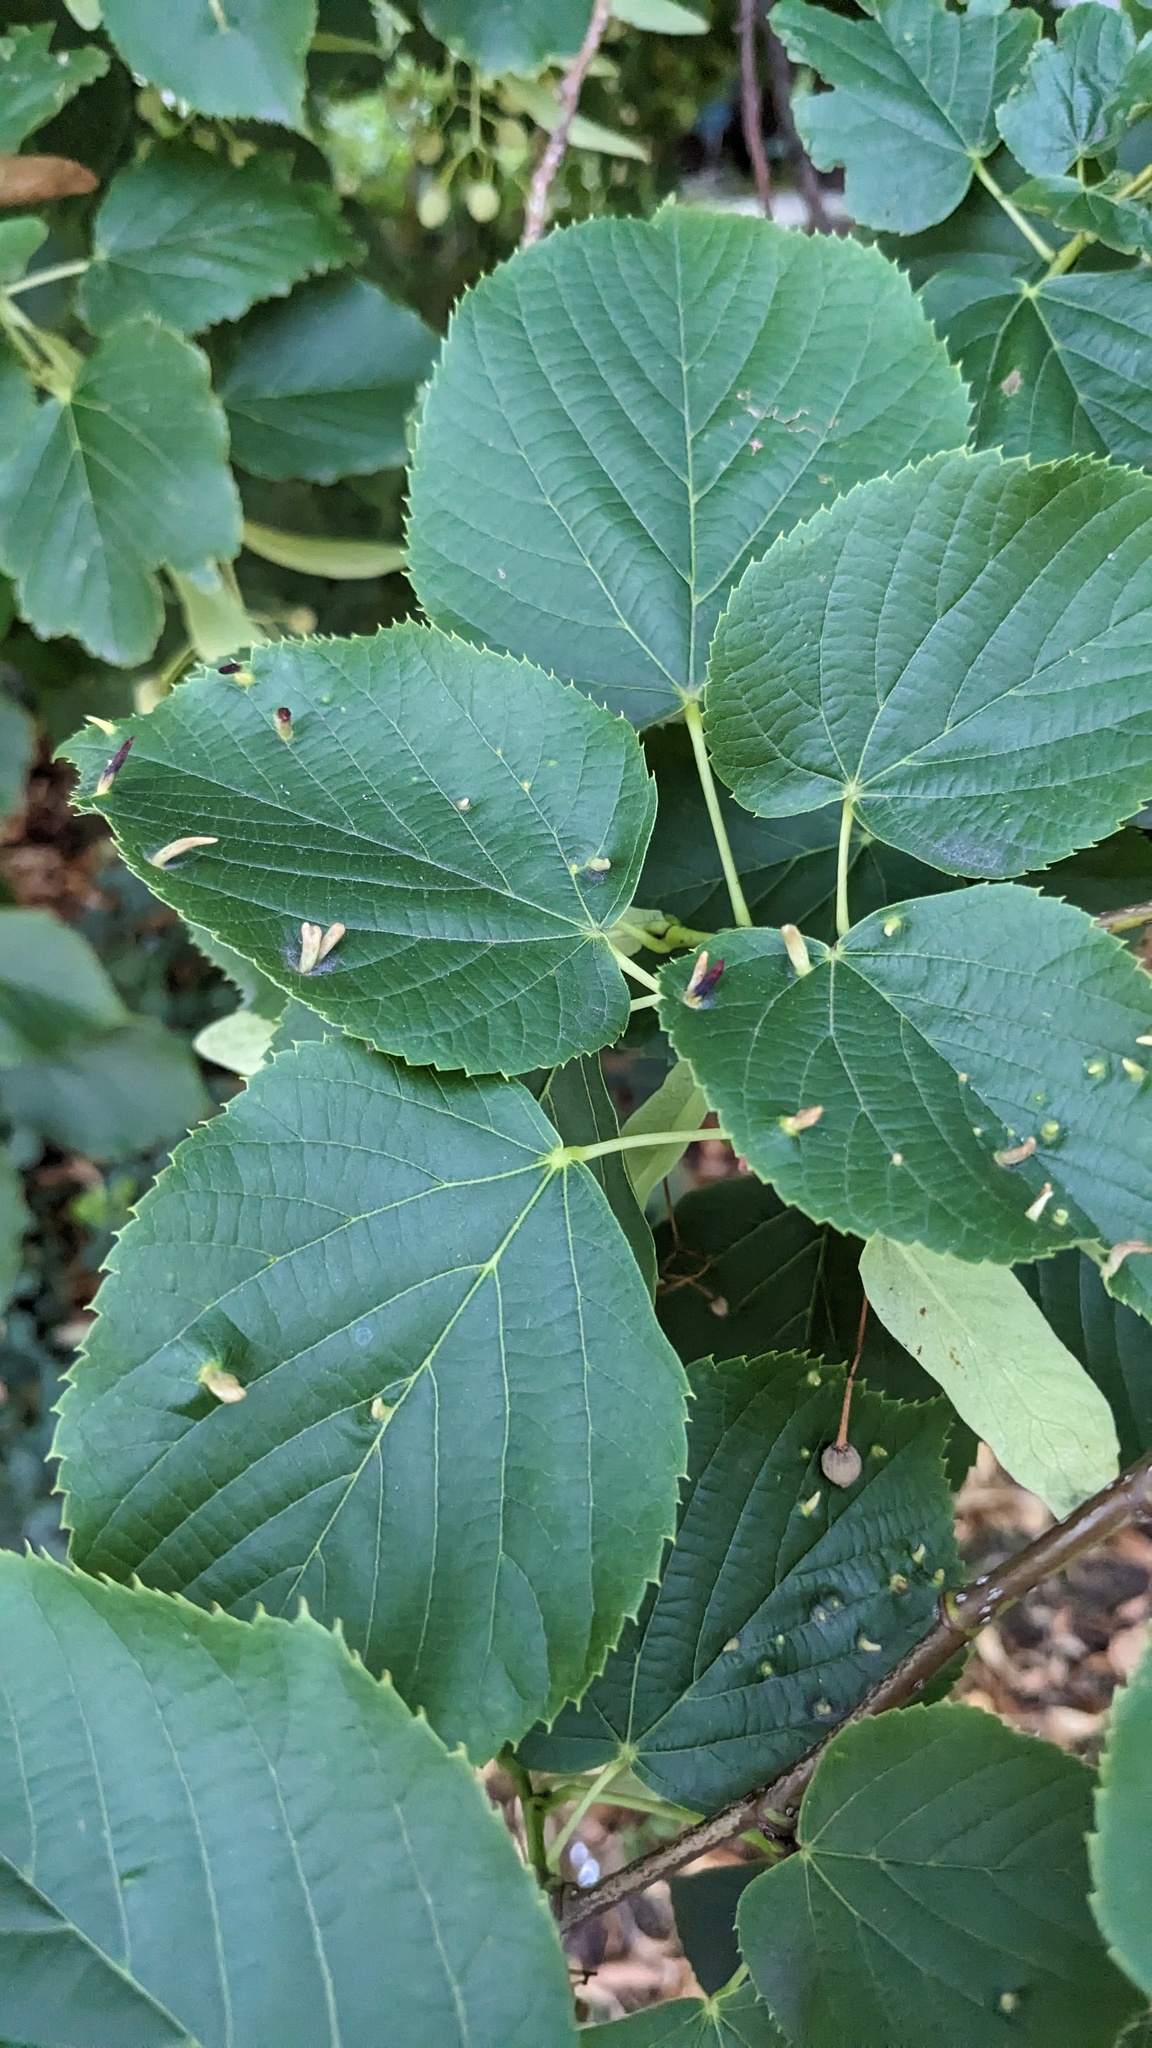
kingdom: Animalia
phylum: Arthropoda
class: Arachnida
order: Trombidiformes
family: Eriophyidae
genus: Eriophyes
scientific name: Eriophyes tiliae
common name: Red nail gall mite
